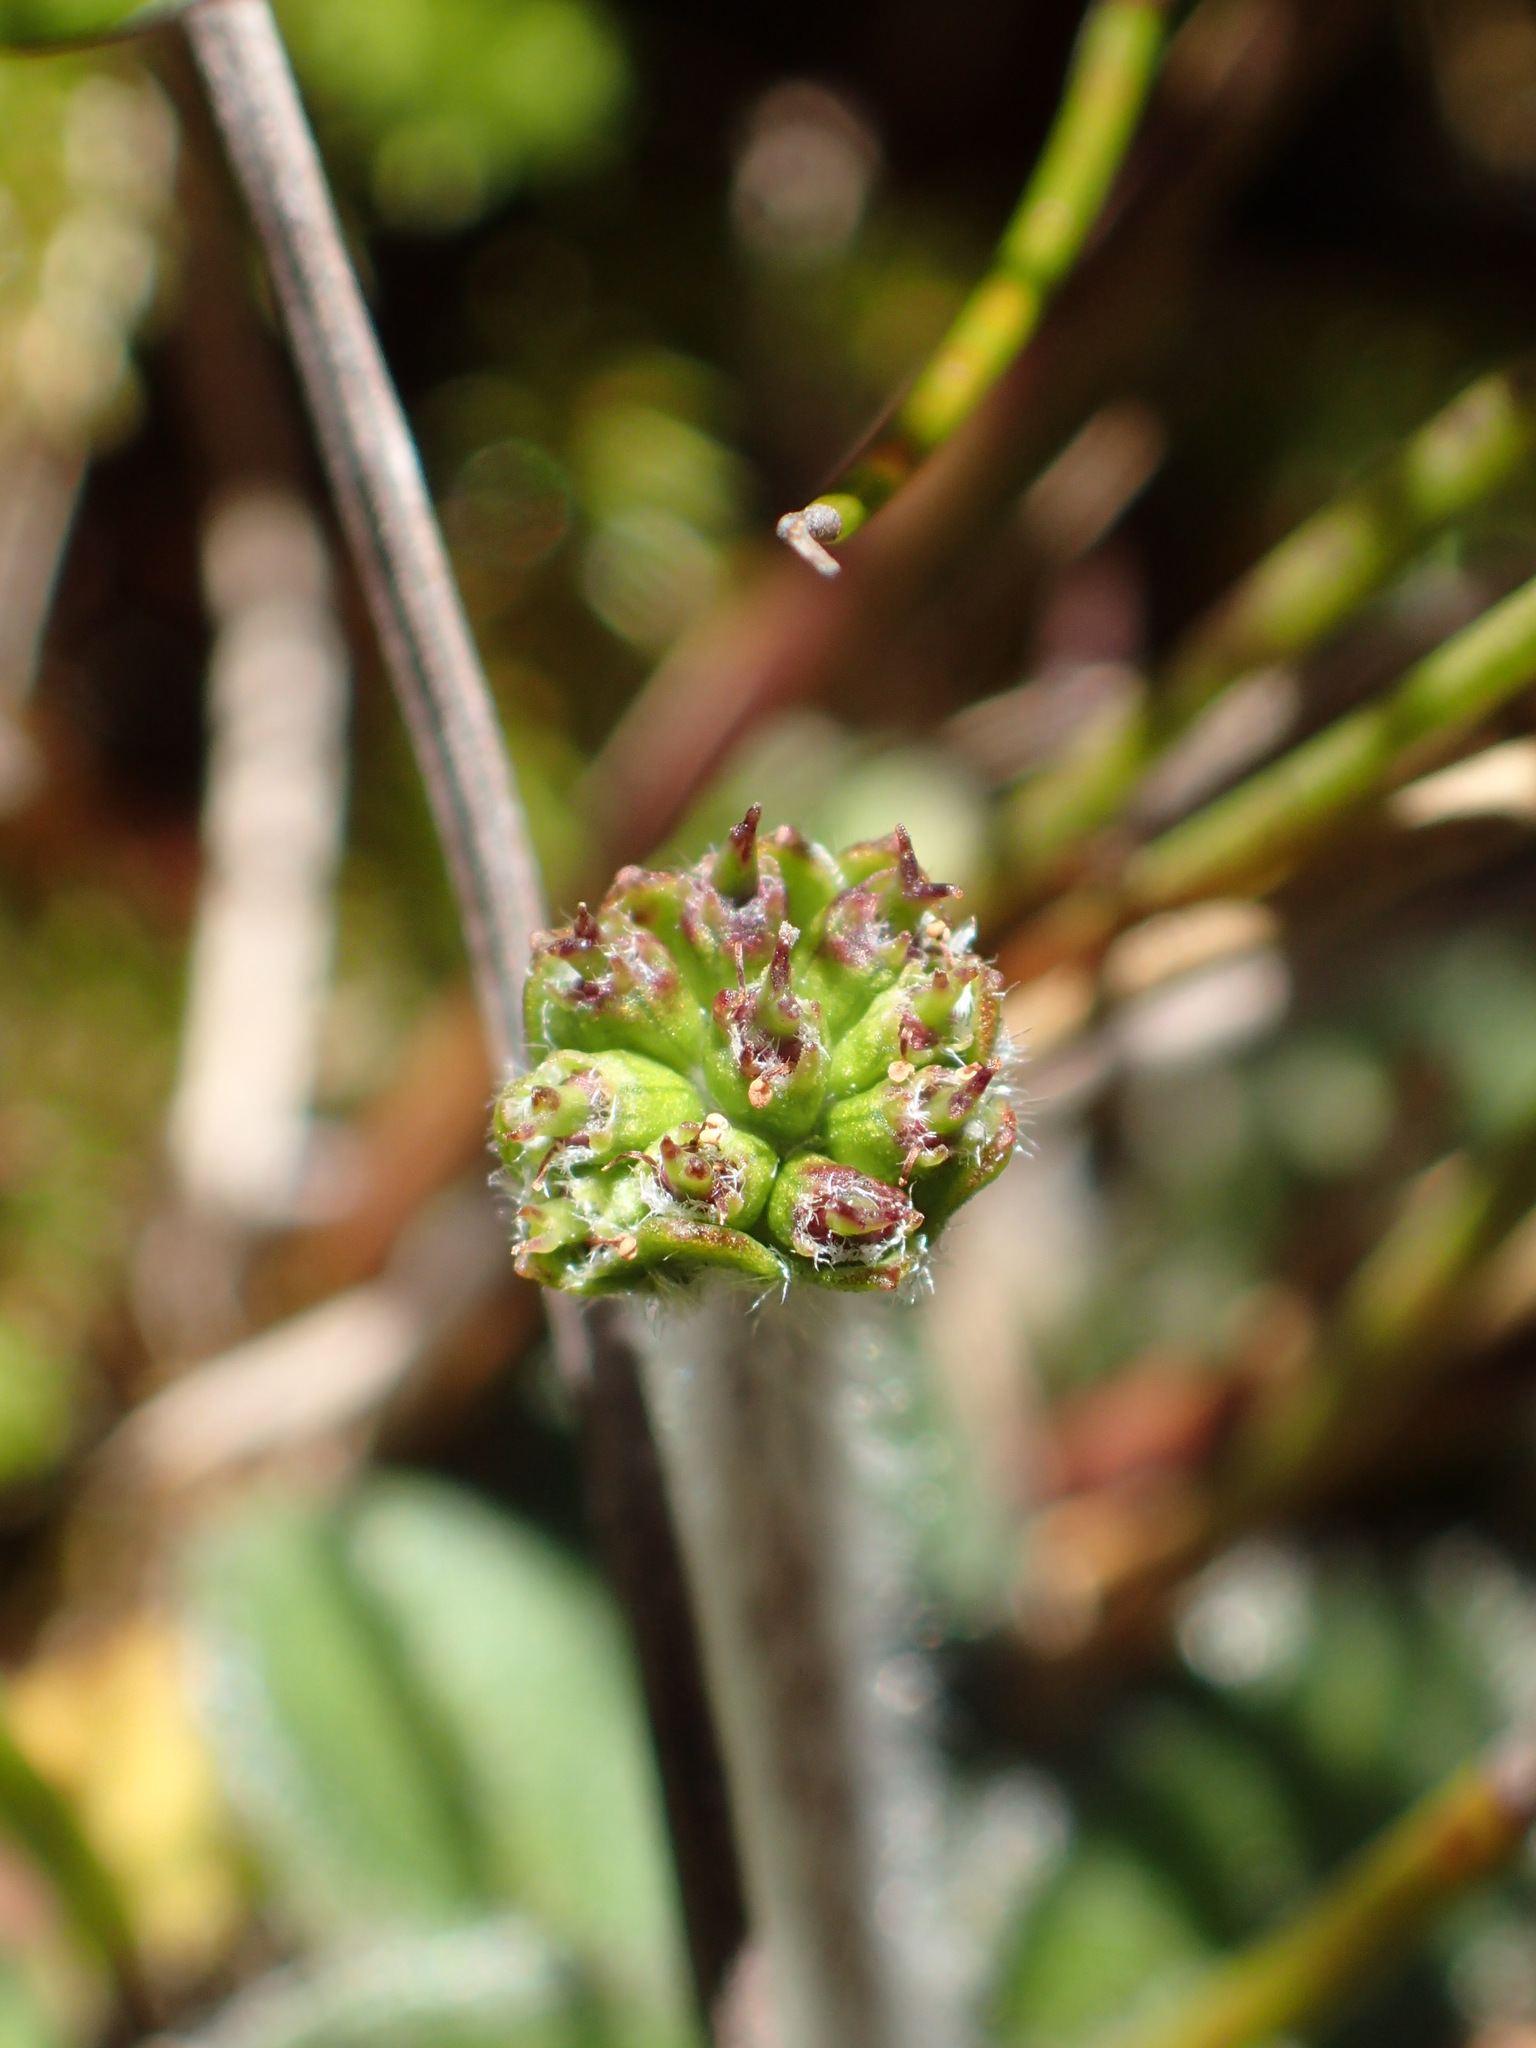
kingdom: Plantae
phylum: Tracheophyta
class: Magnoliopsida
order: Apiales
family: Apiaceae
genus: Actinotus
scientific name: Actinotus bellidioides
